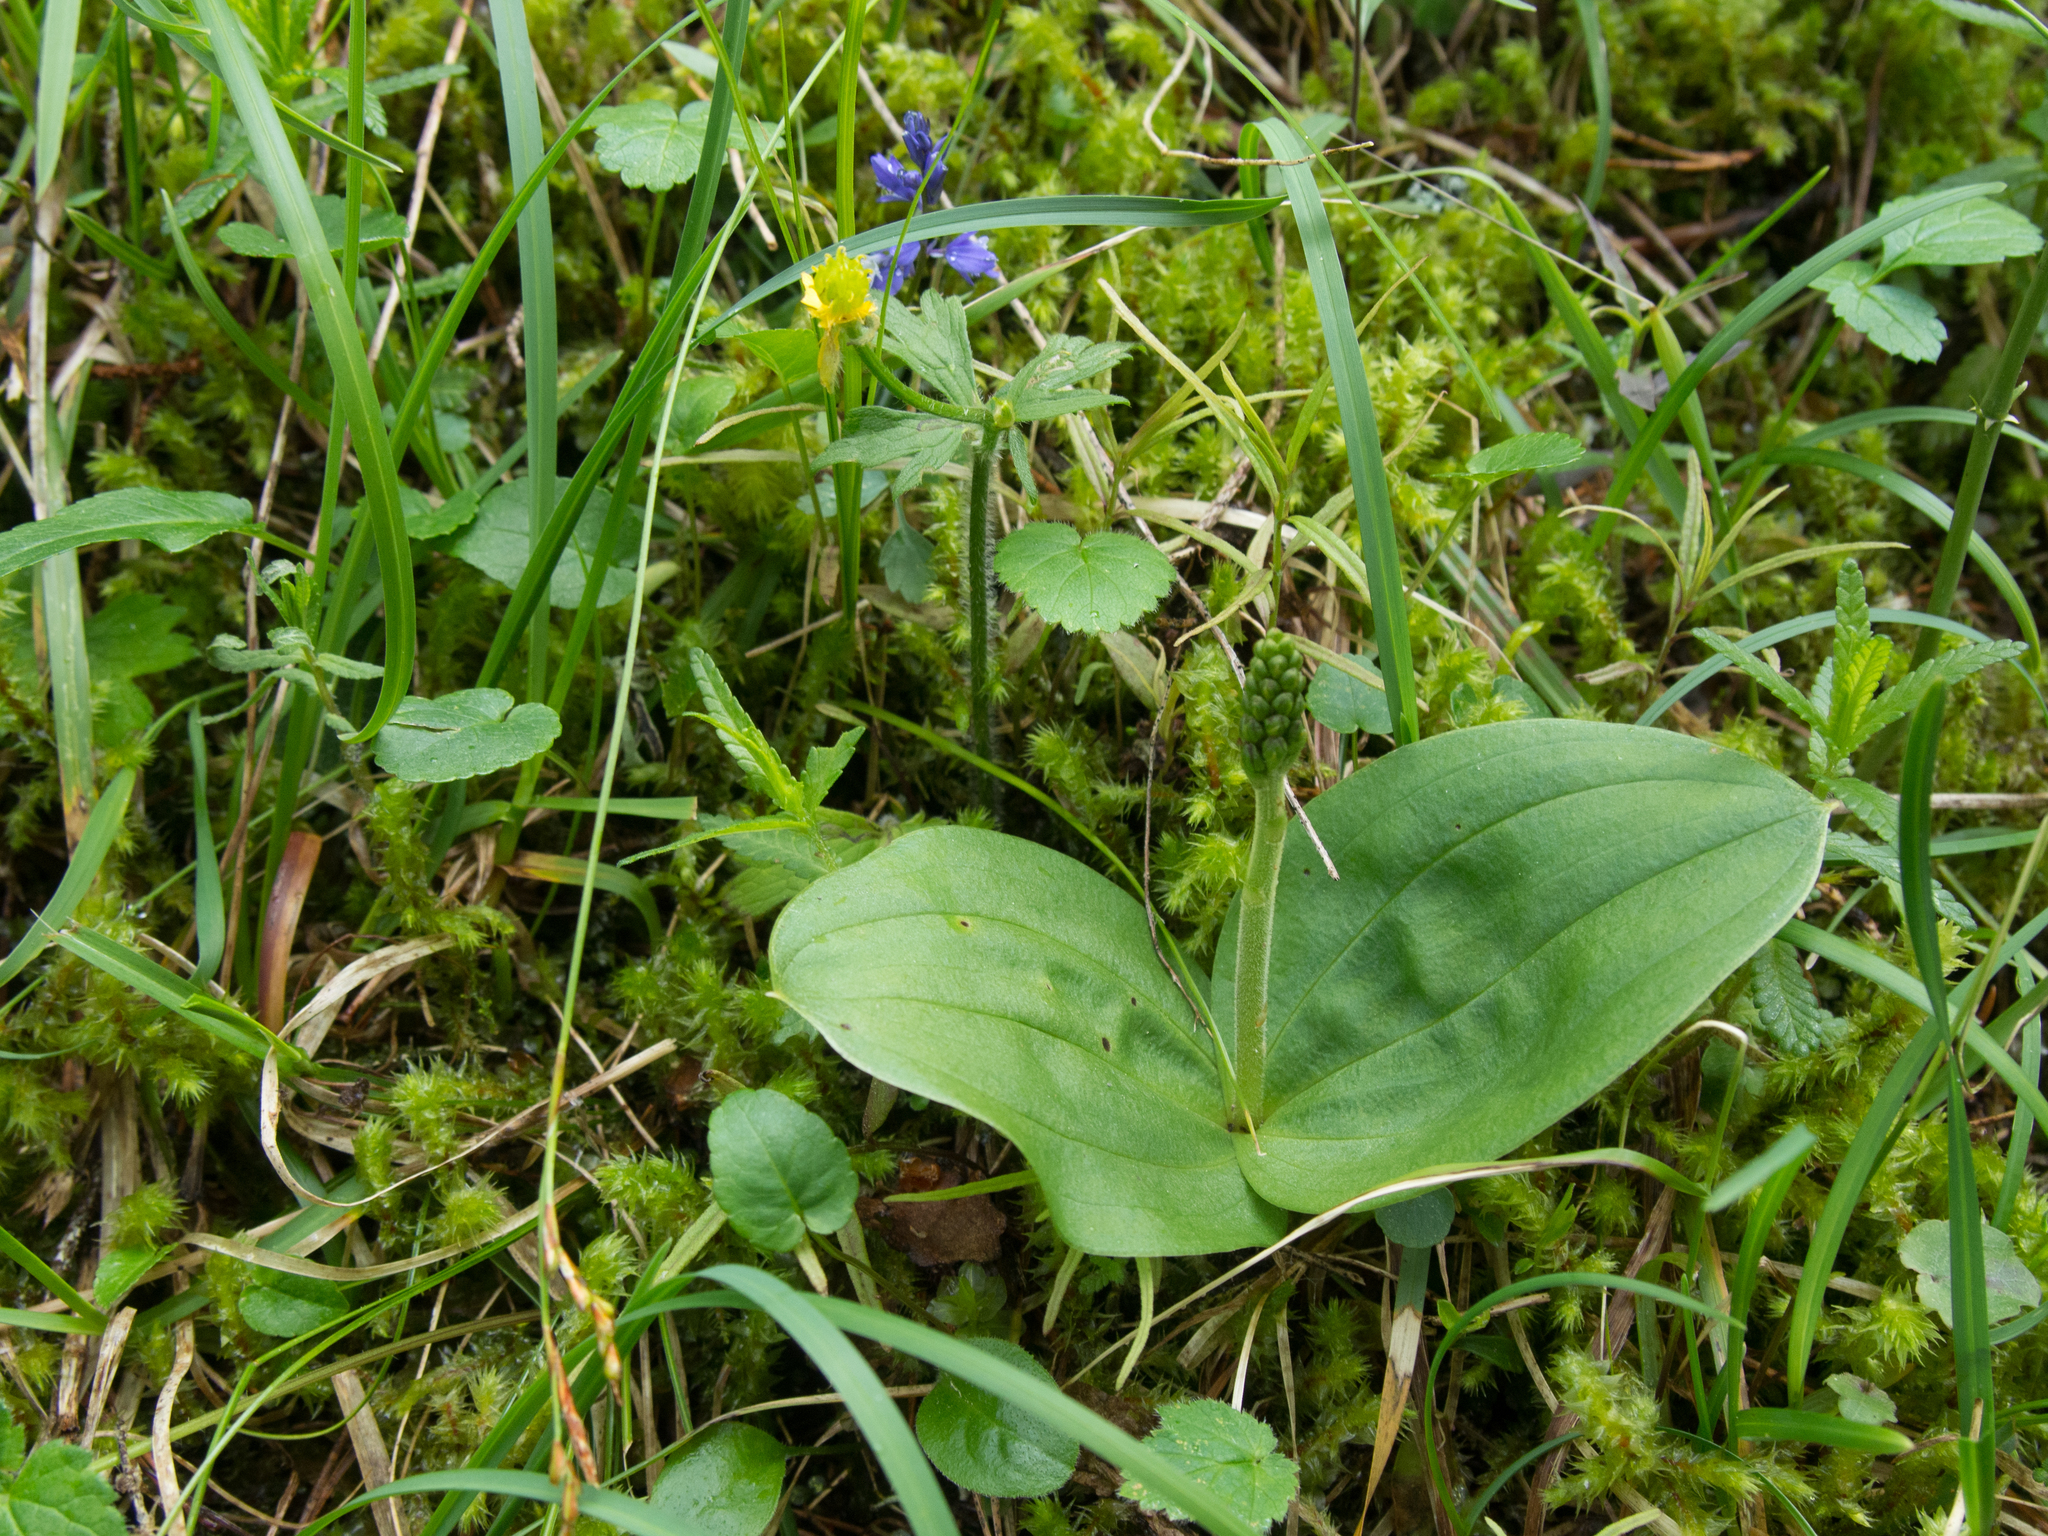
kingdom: Plantae
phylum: Tracheophyta
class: Liliopsida
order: Asparagales
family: Orchidaceae
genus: Neottia
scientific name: Neottia ovata
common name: Common twayblade
